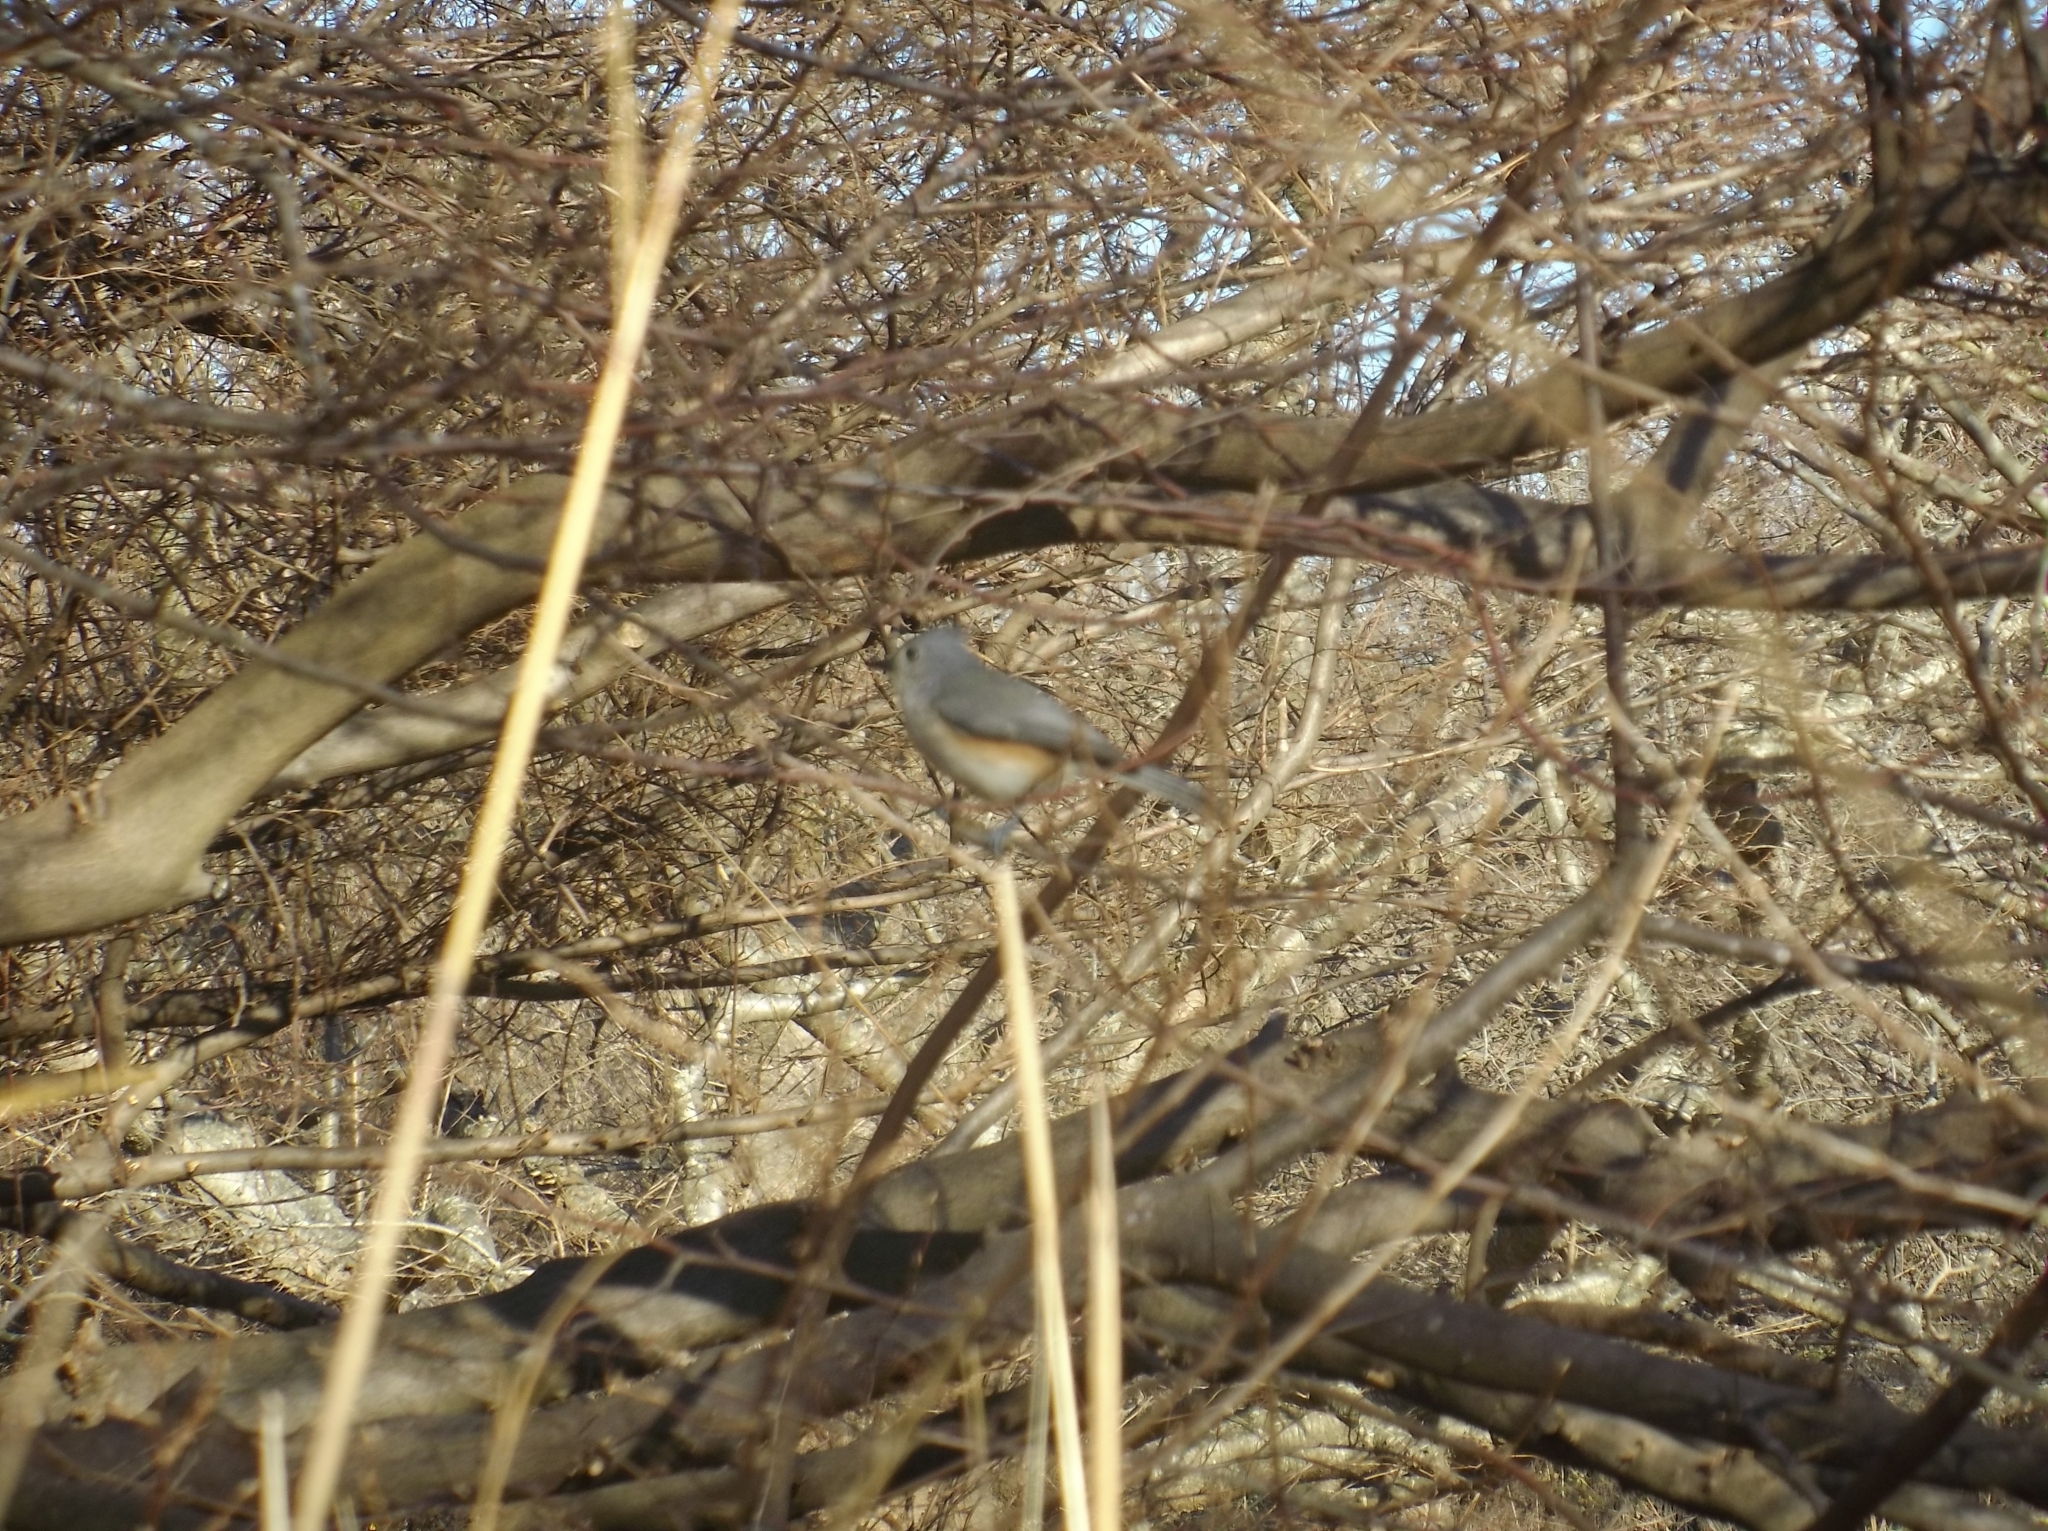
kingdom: Animalia
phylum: Chordata
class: Aves
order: Passeriformes
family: Paridae
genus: Baeolophus
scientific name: Baeolophus bicolor
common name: Tufted titmouse
